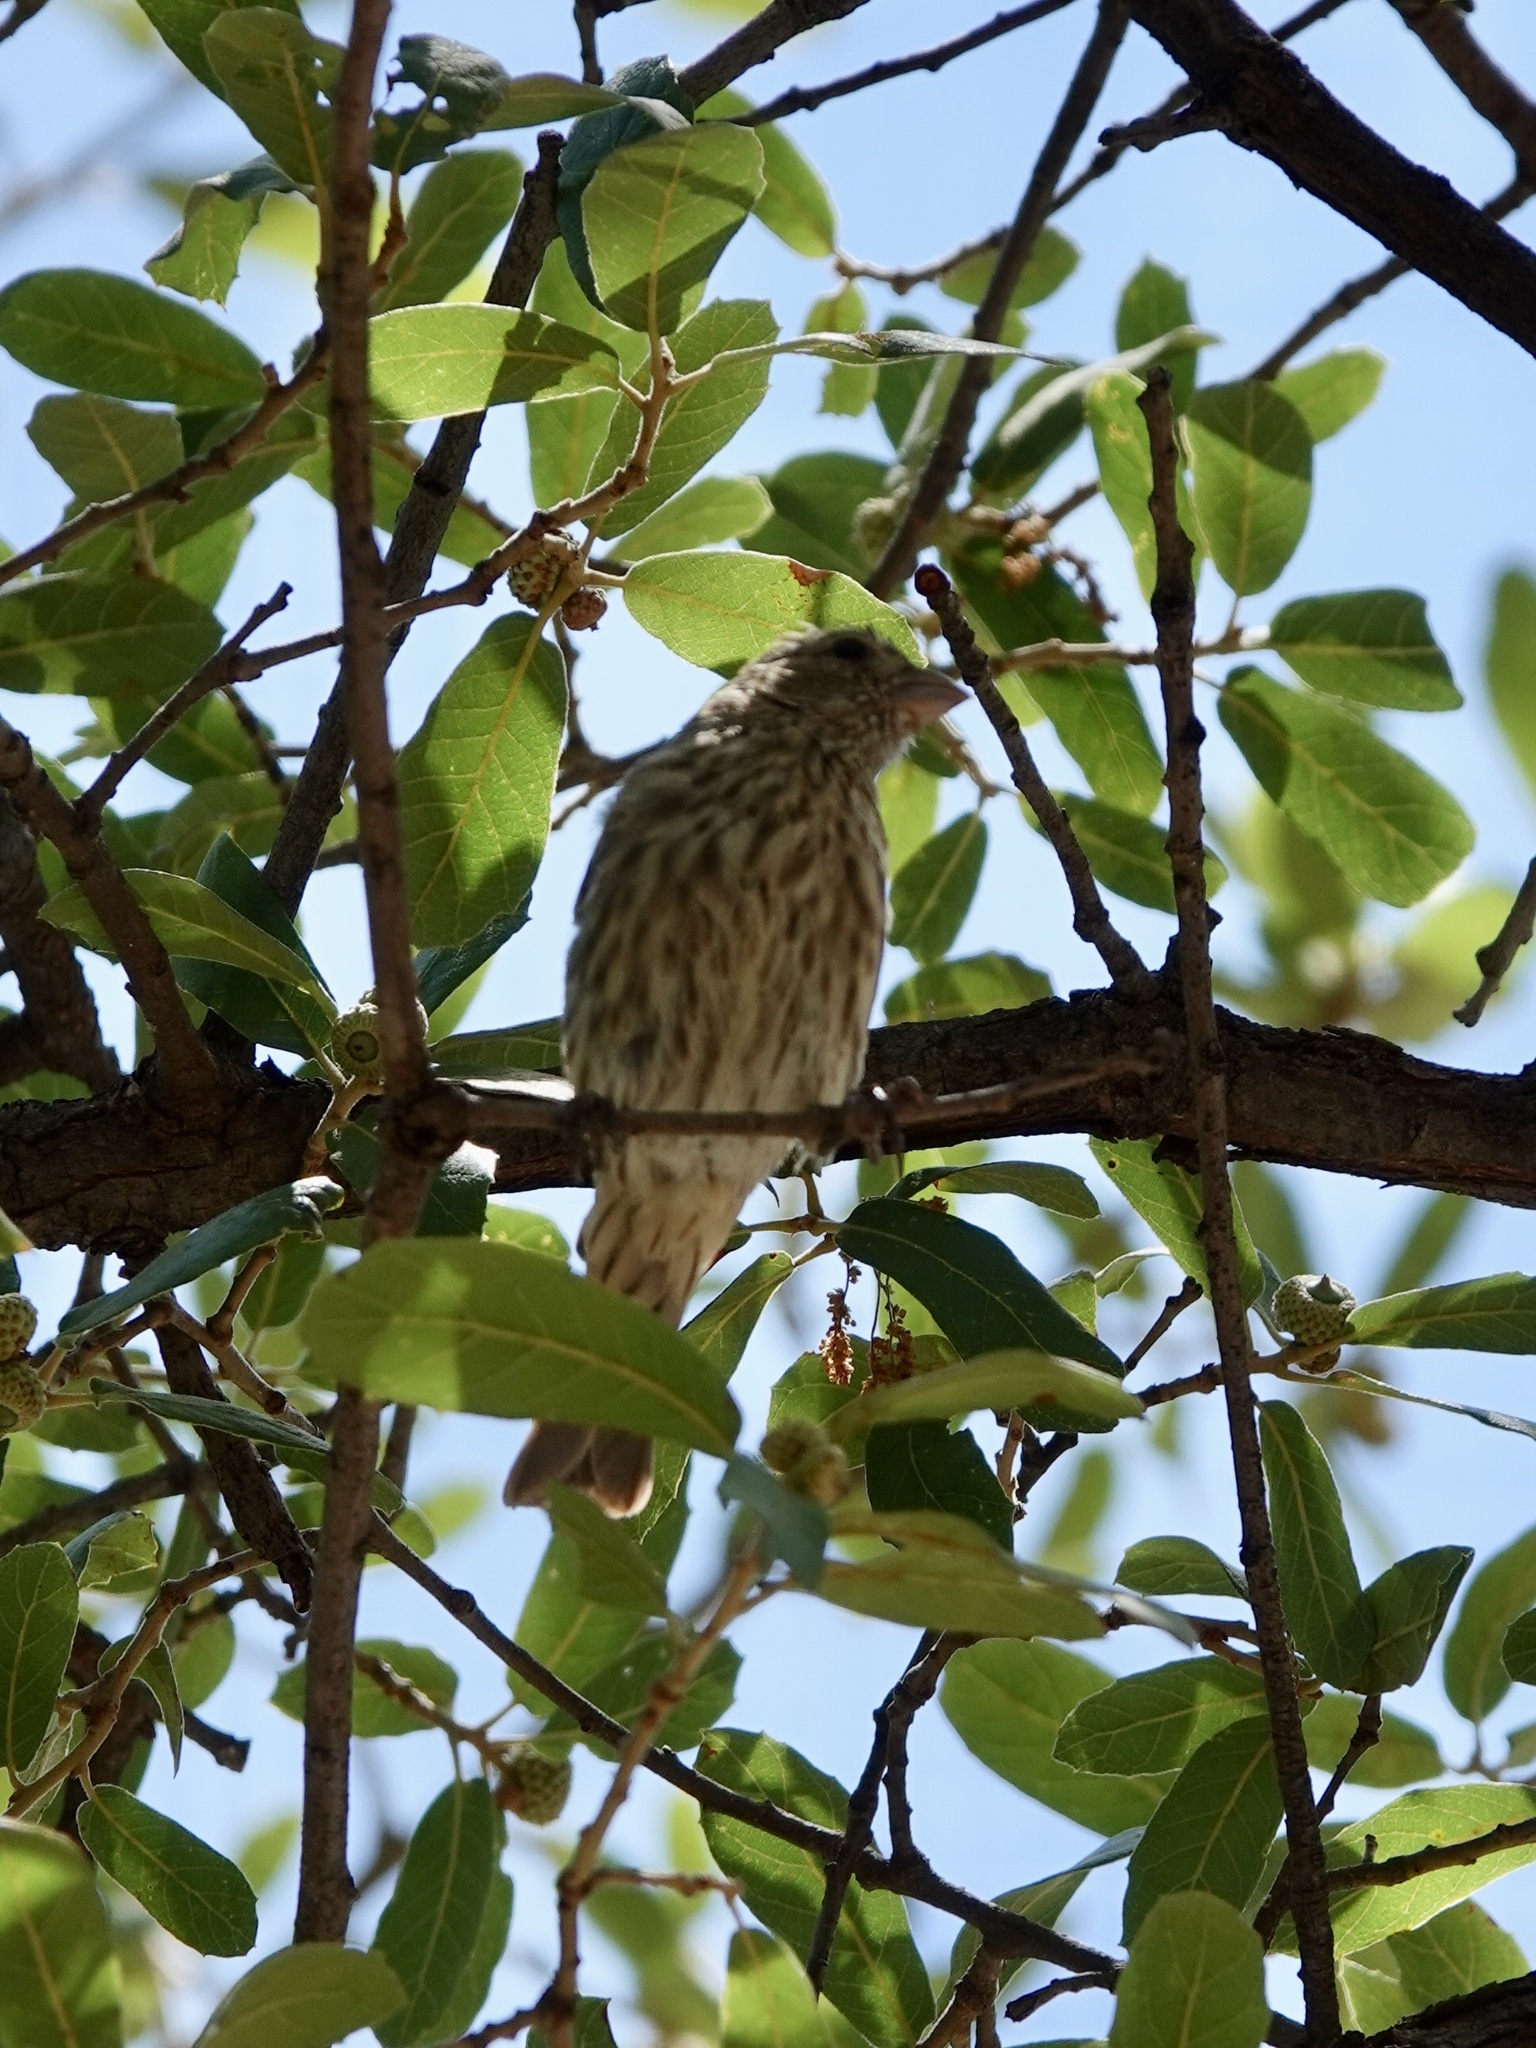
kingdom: Animalia
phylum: Chordata
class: Aves
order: Passeriformes
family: Fringillidae
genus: Haemorhous
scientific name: Haemorhous mexicanus
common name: House finch
